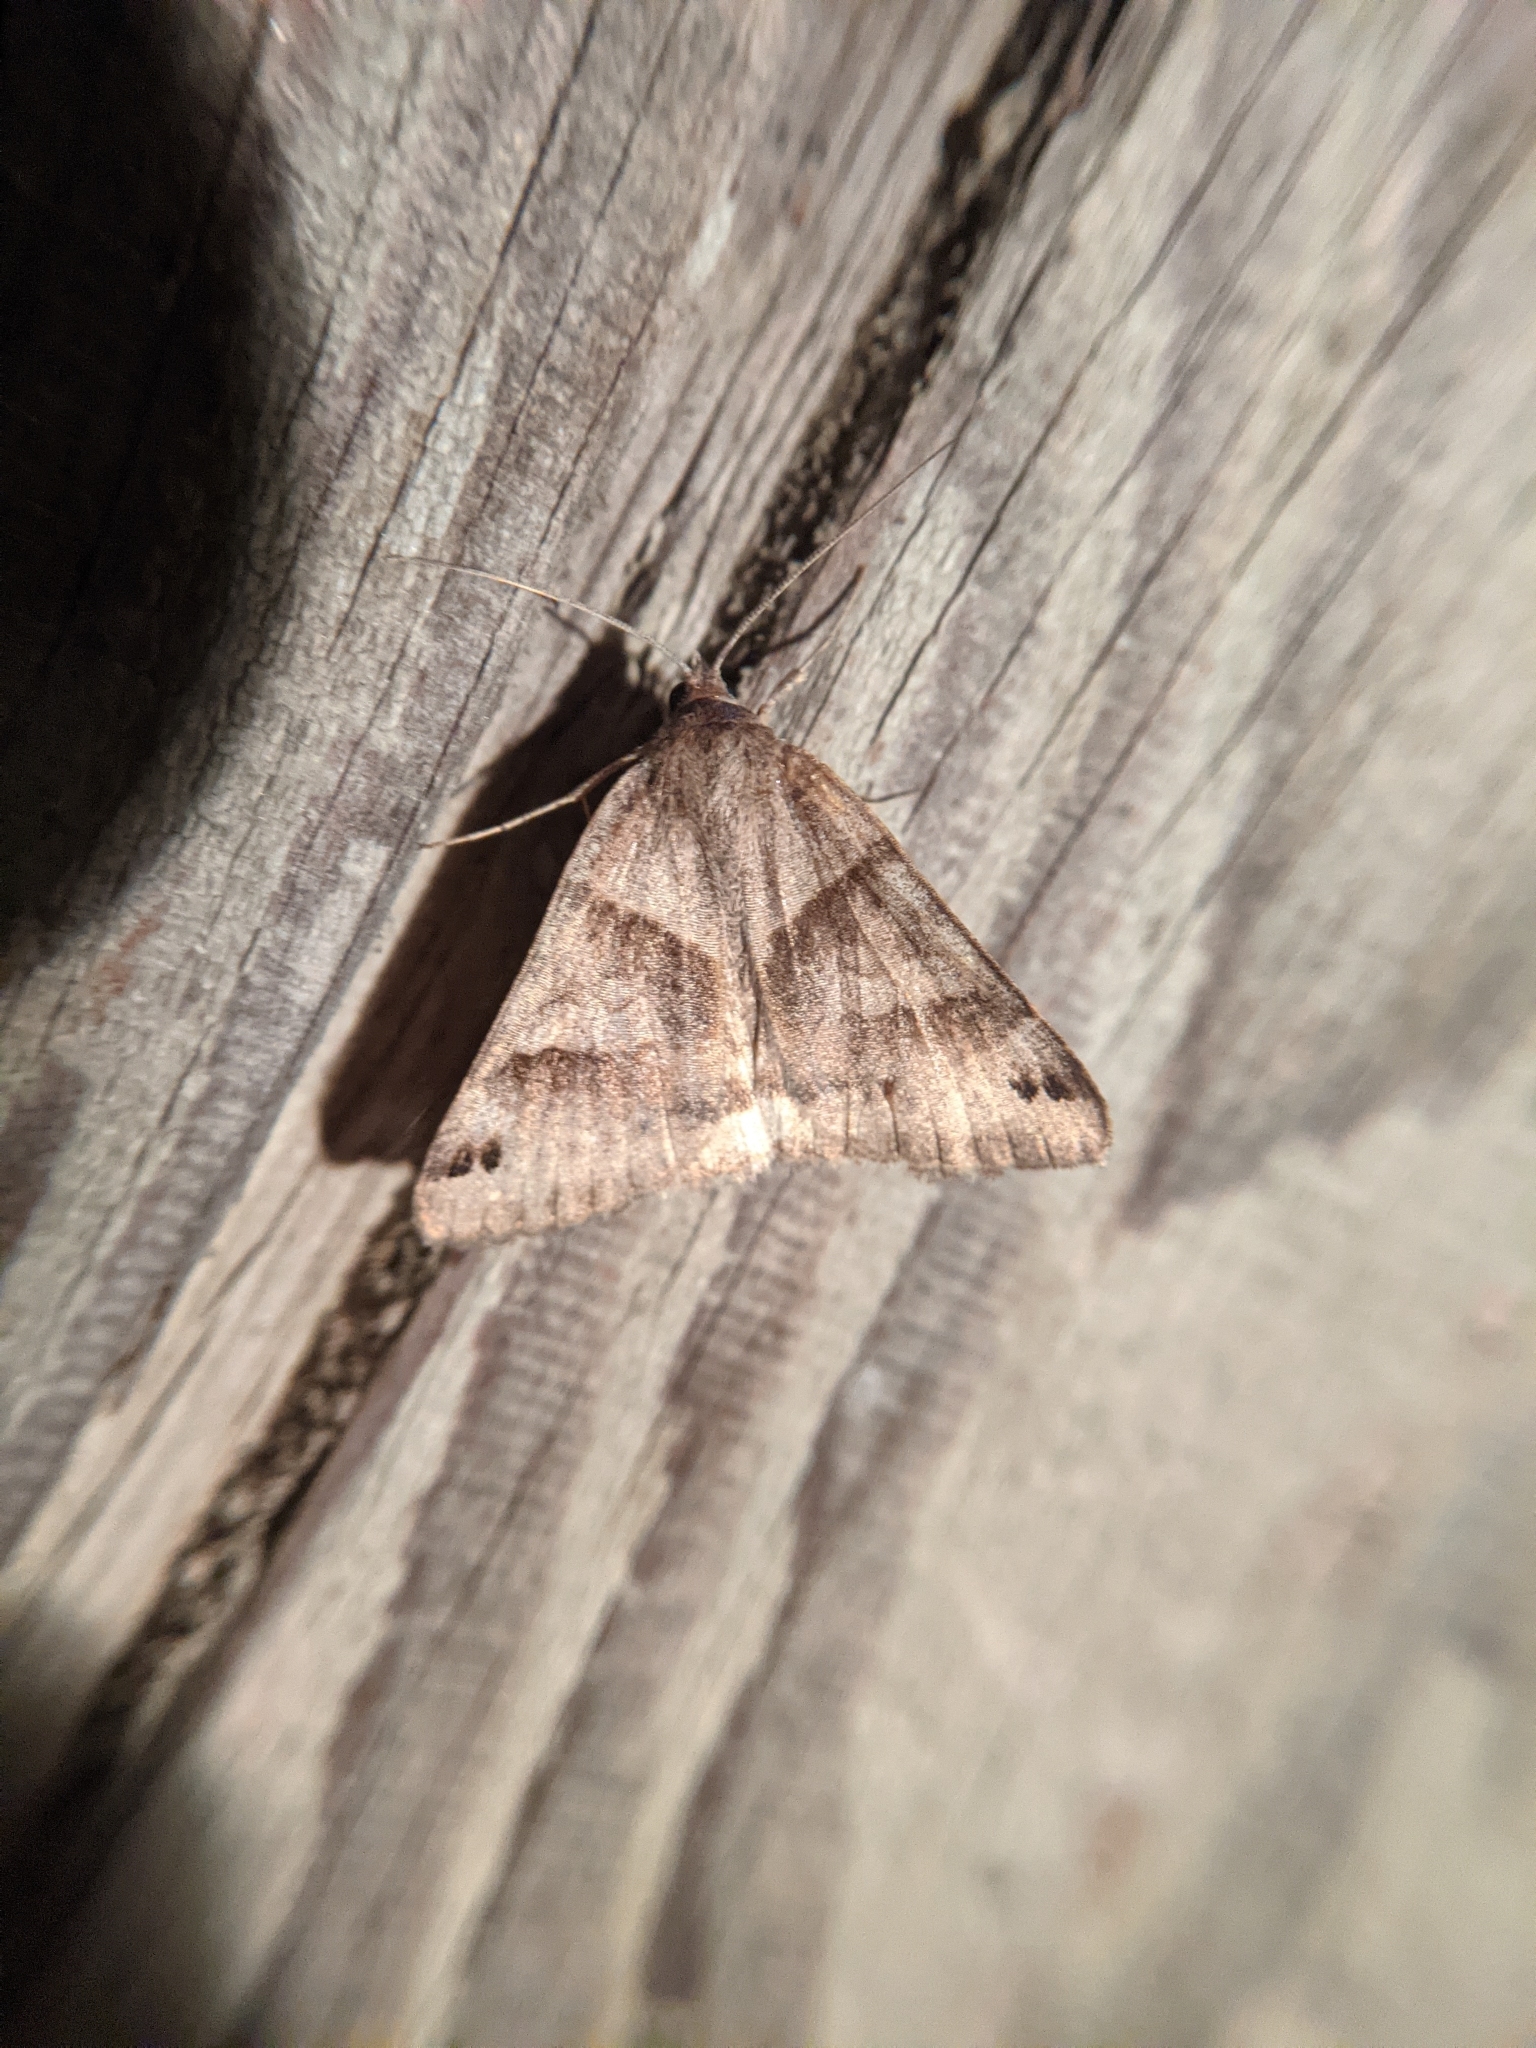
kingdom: Animalia
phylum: Arthropoda
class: Insecta
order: Lepidoptera
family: Erebidae
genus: Caenurgina
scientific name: Caenurgina crassiuscula
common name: Double-barred
